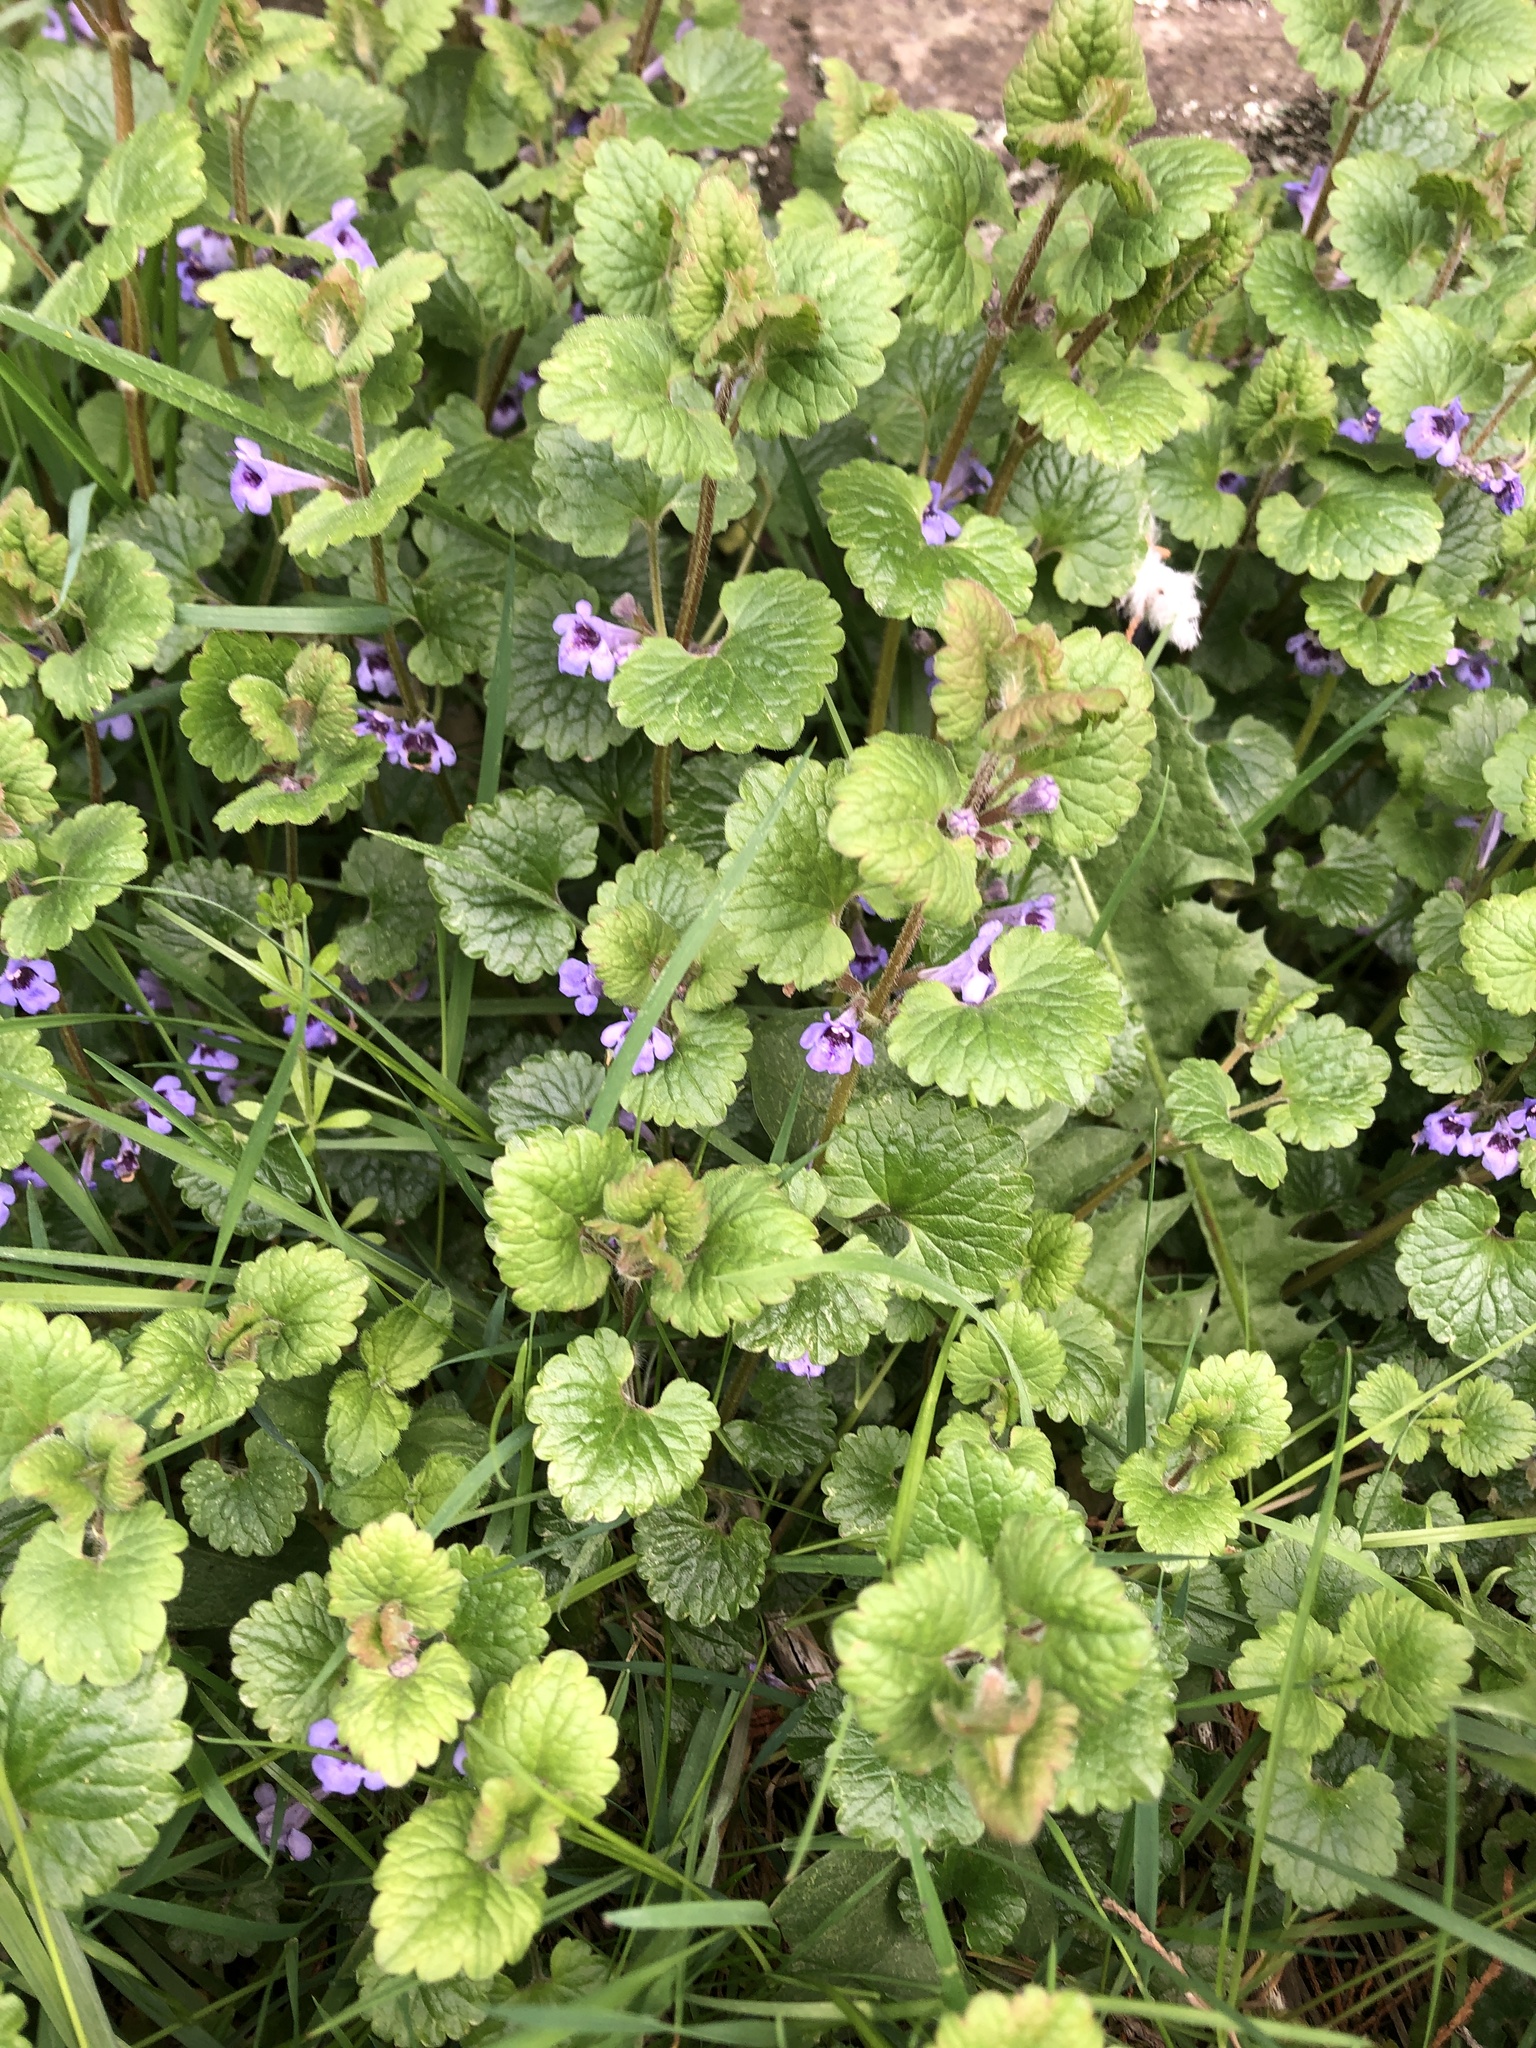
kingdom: Plantae
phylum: Tracheophyta
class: Magnoliopsida
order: Lamiales
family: Lamiaceae
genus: Glechoma
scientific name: Glechoma hederacea
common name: Ground ivy
